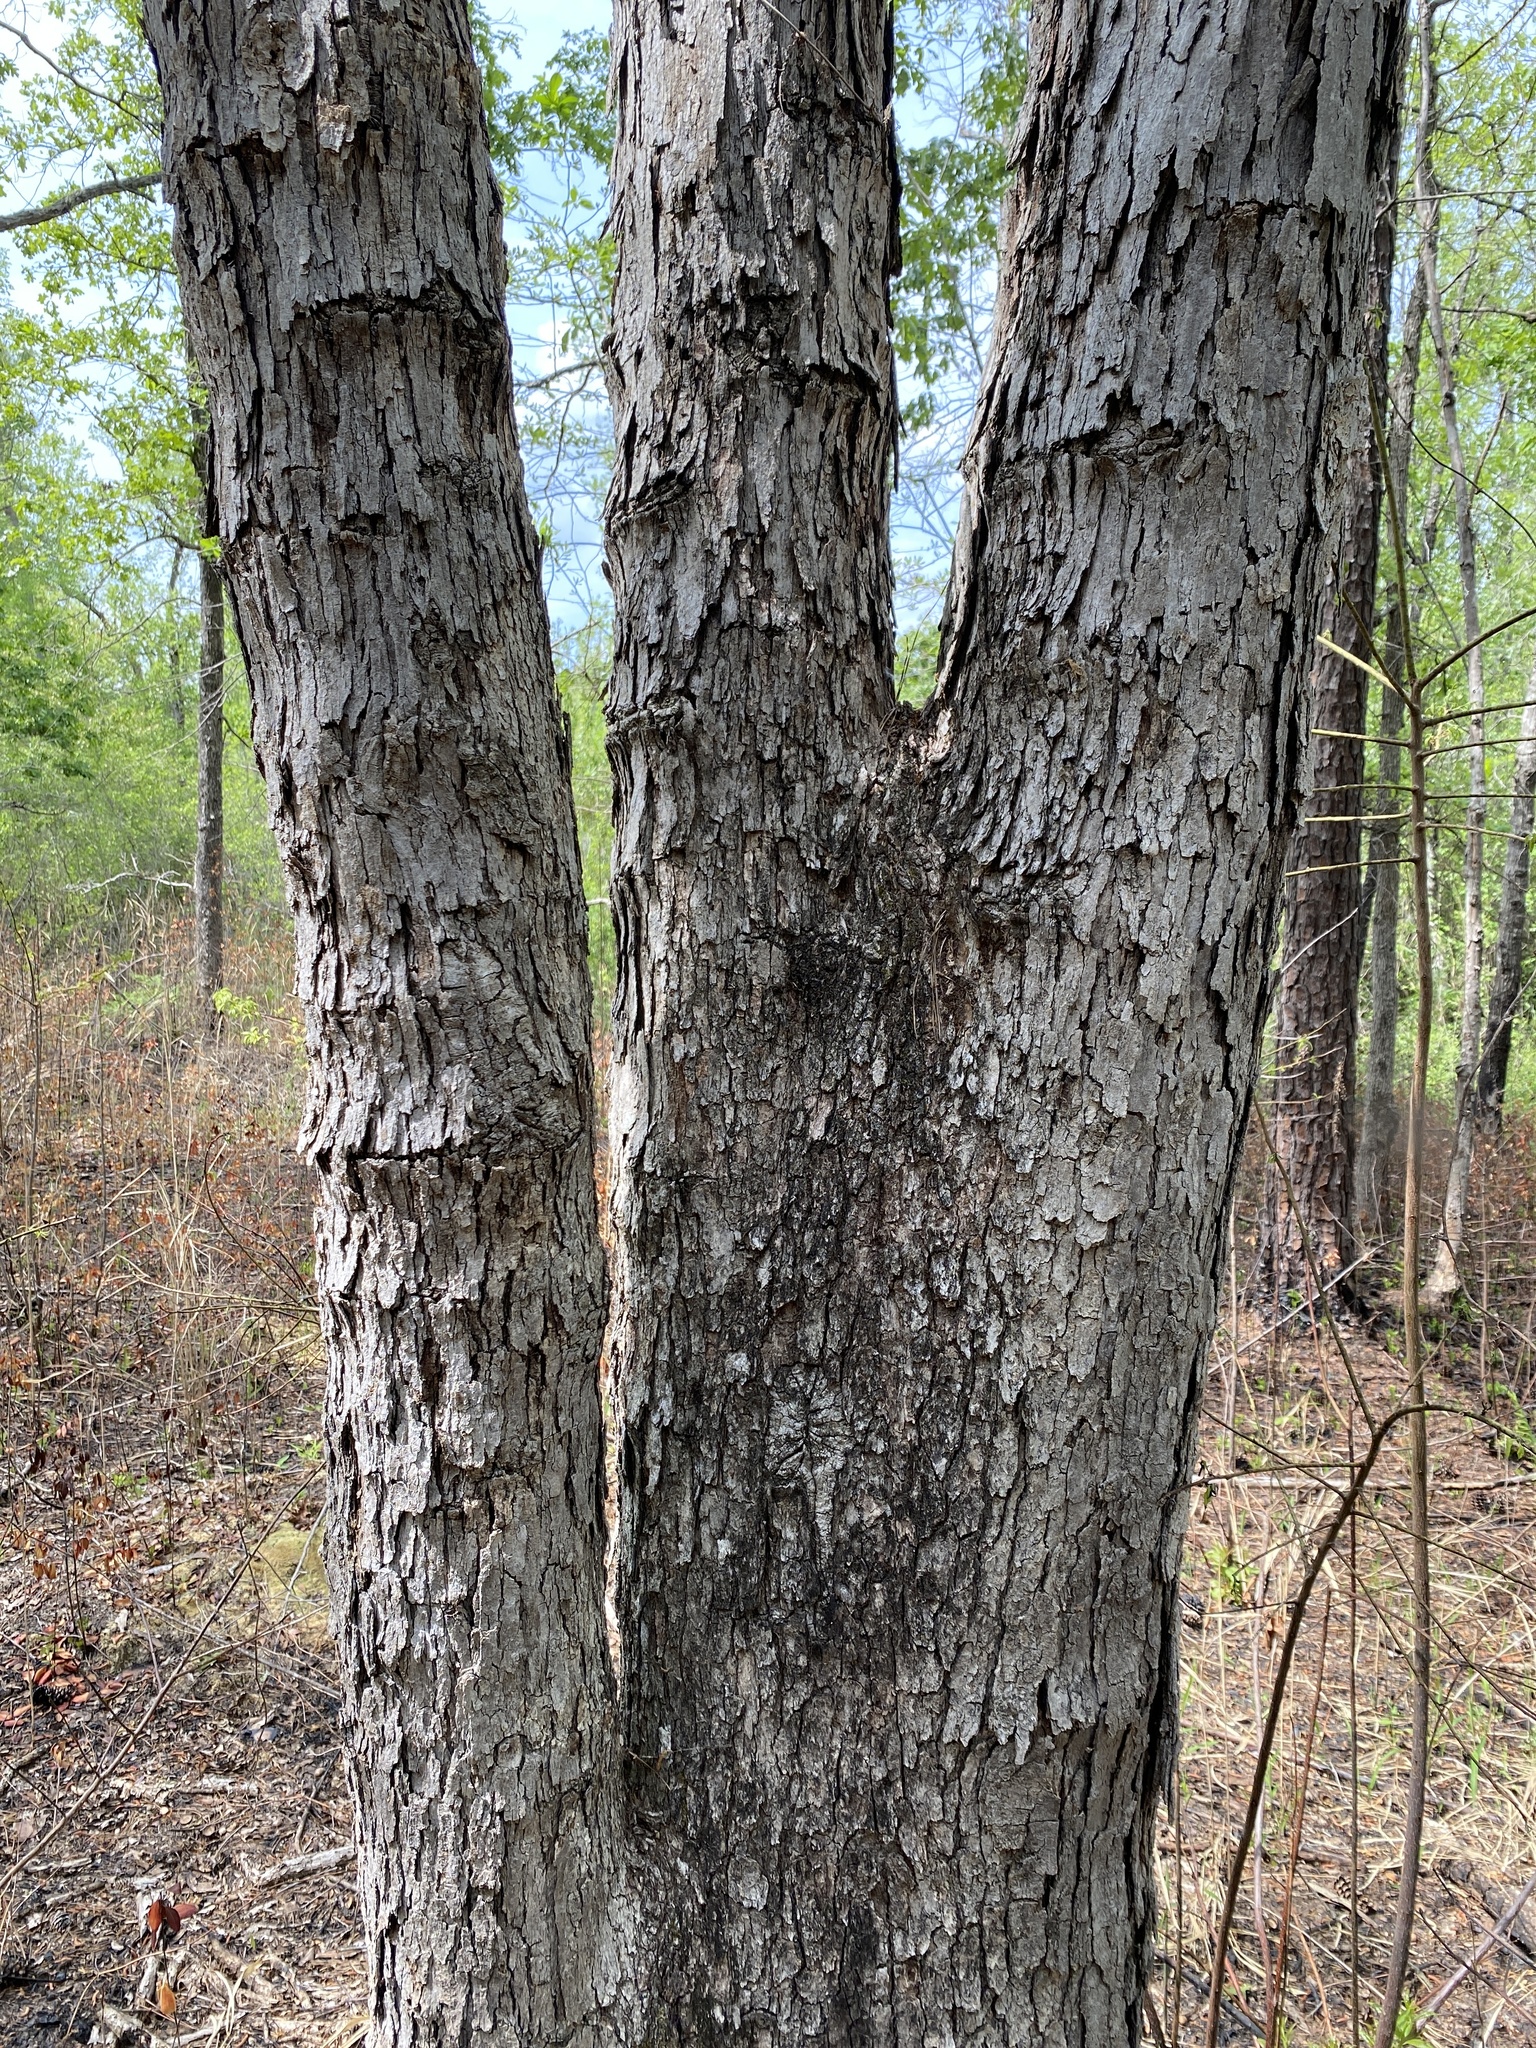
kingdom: Plantae
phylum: Tracheophyta
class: Magnoliopsida
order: Fagales
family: Fagaceae
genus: Quercus
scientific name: Quercus alba
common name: White oak
